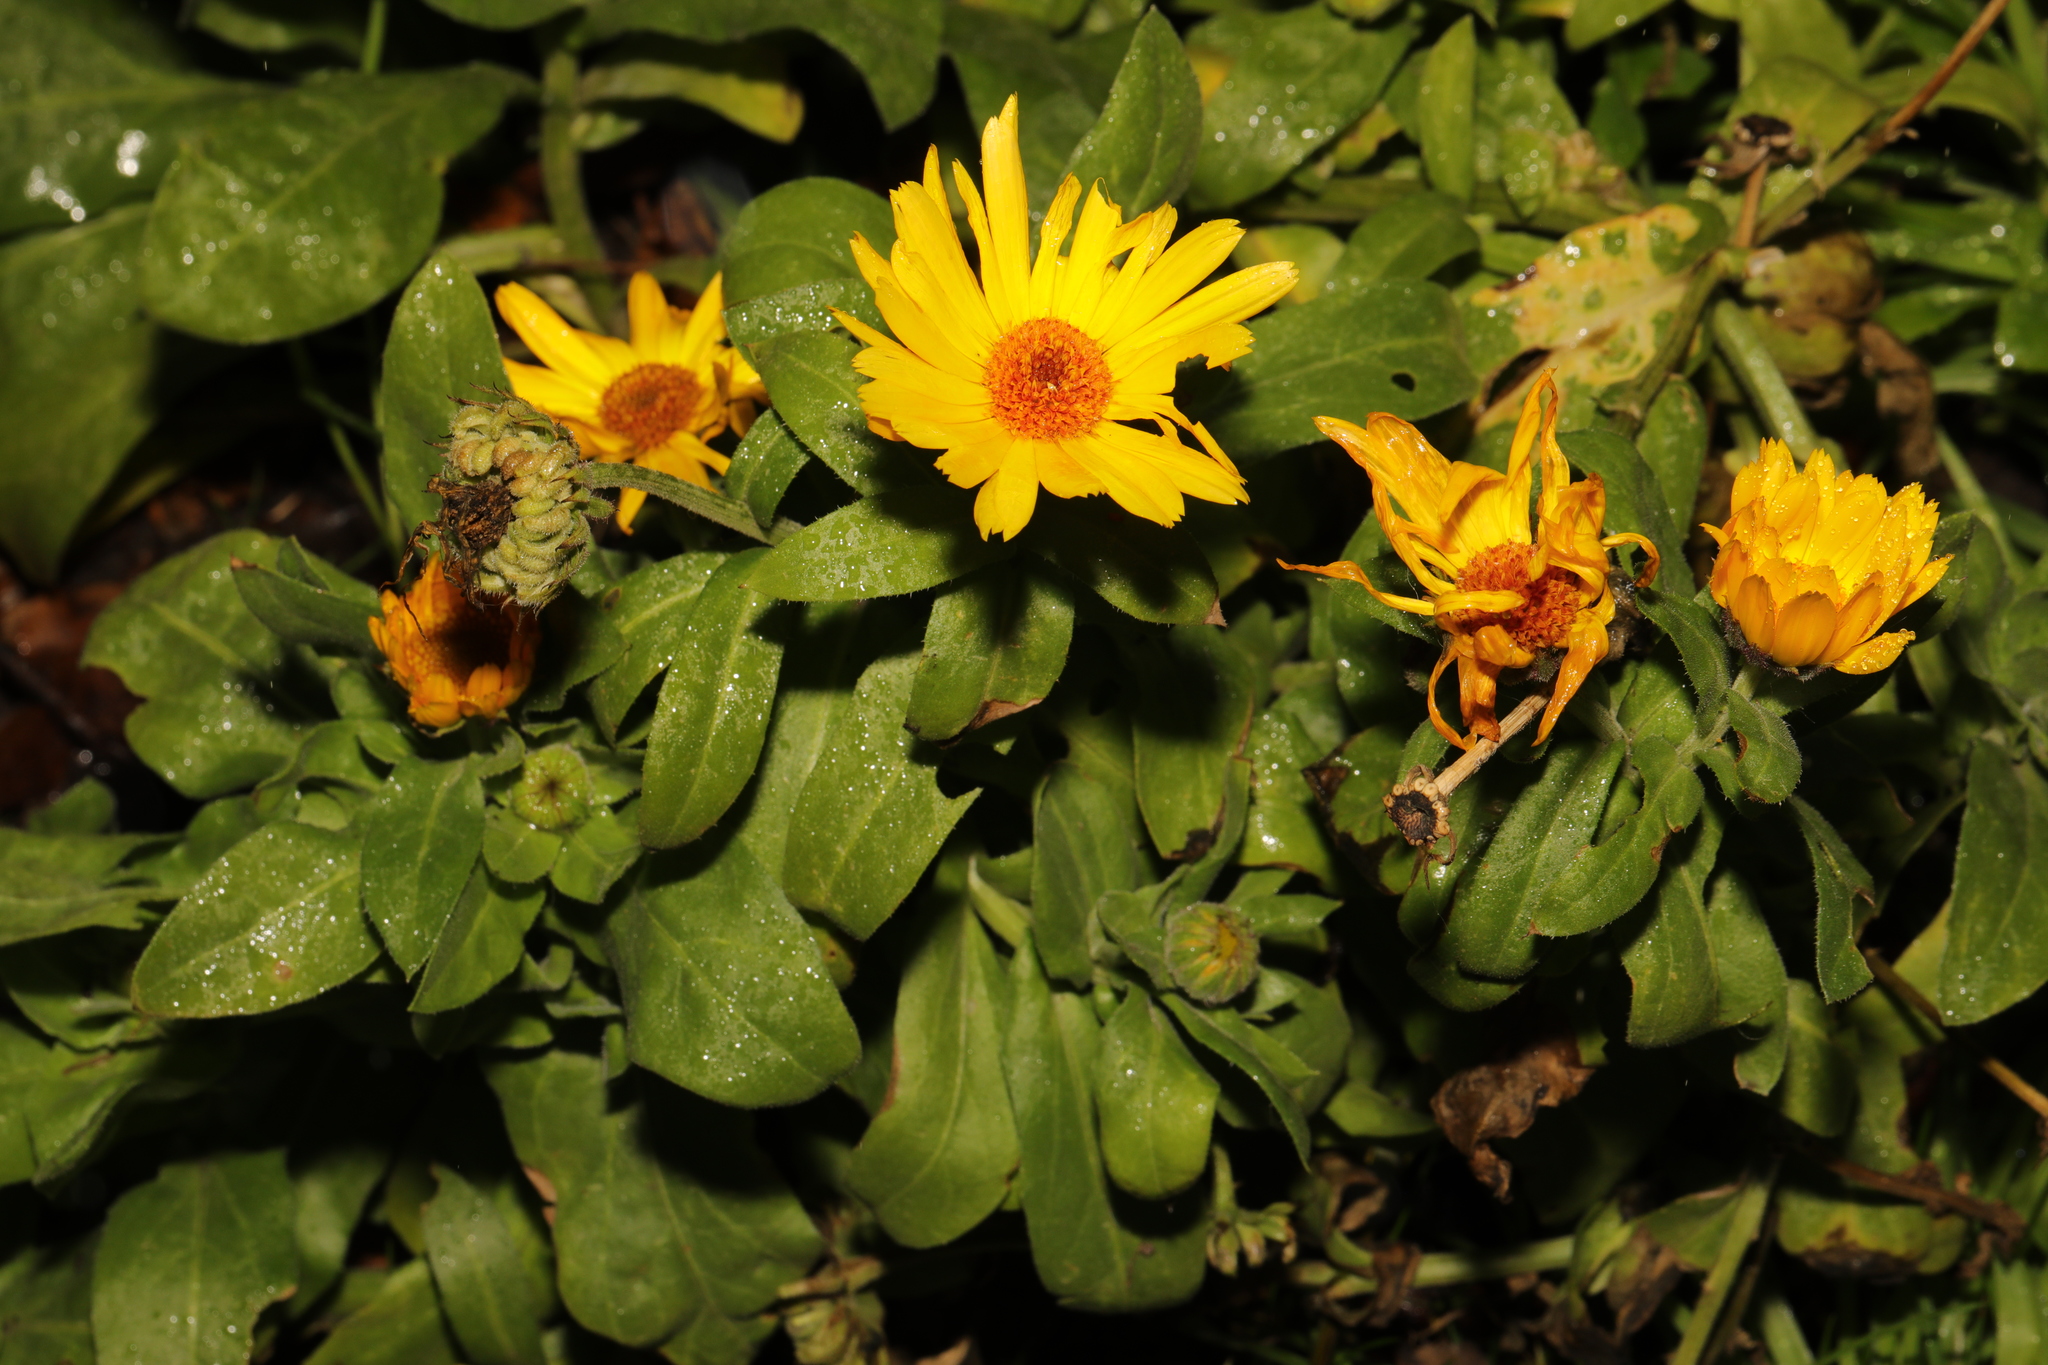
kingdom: Plantae
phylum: Tracheophyta
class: Magnoliopsida
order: Asterales
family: Asteraceae
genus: Calendula
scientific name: Calendula officinalis
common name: Pot marigold
